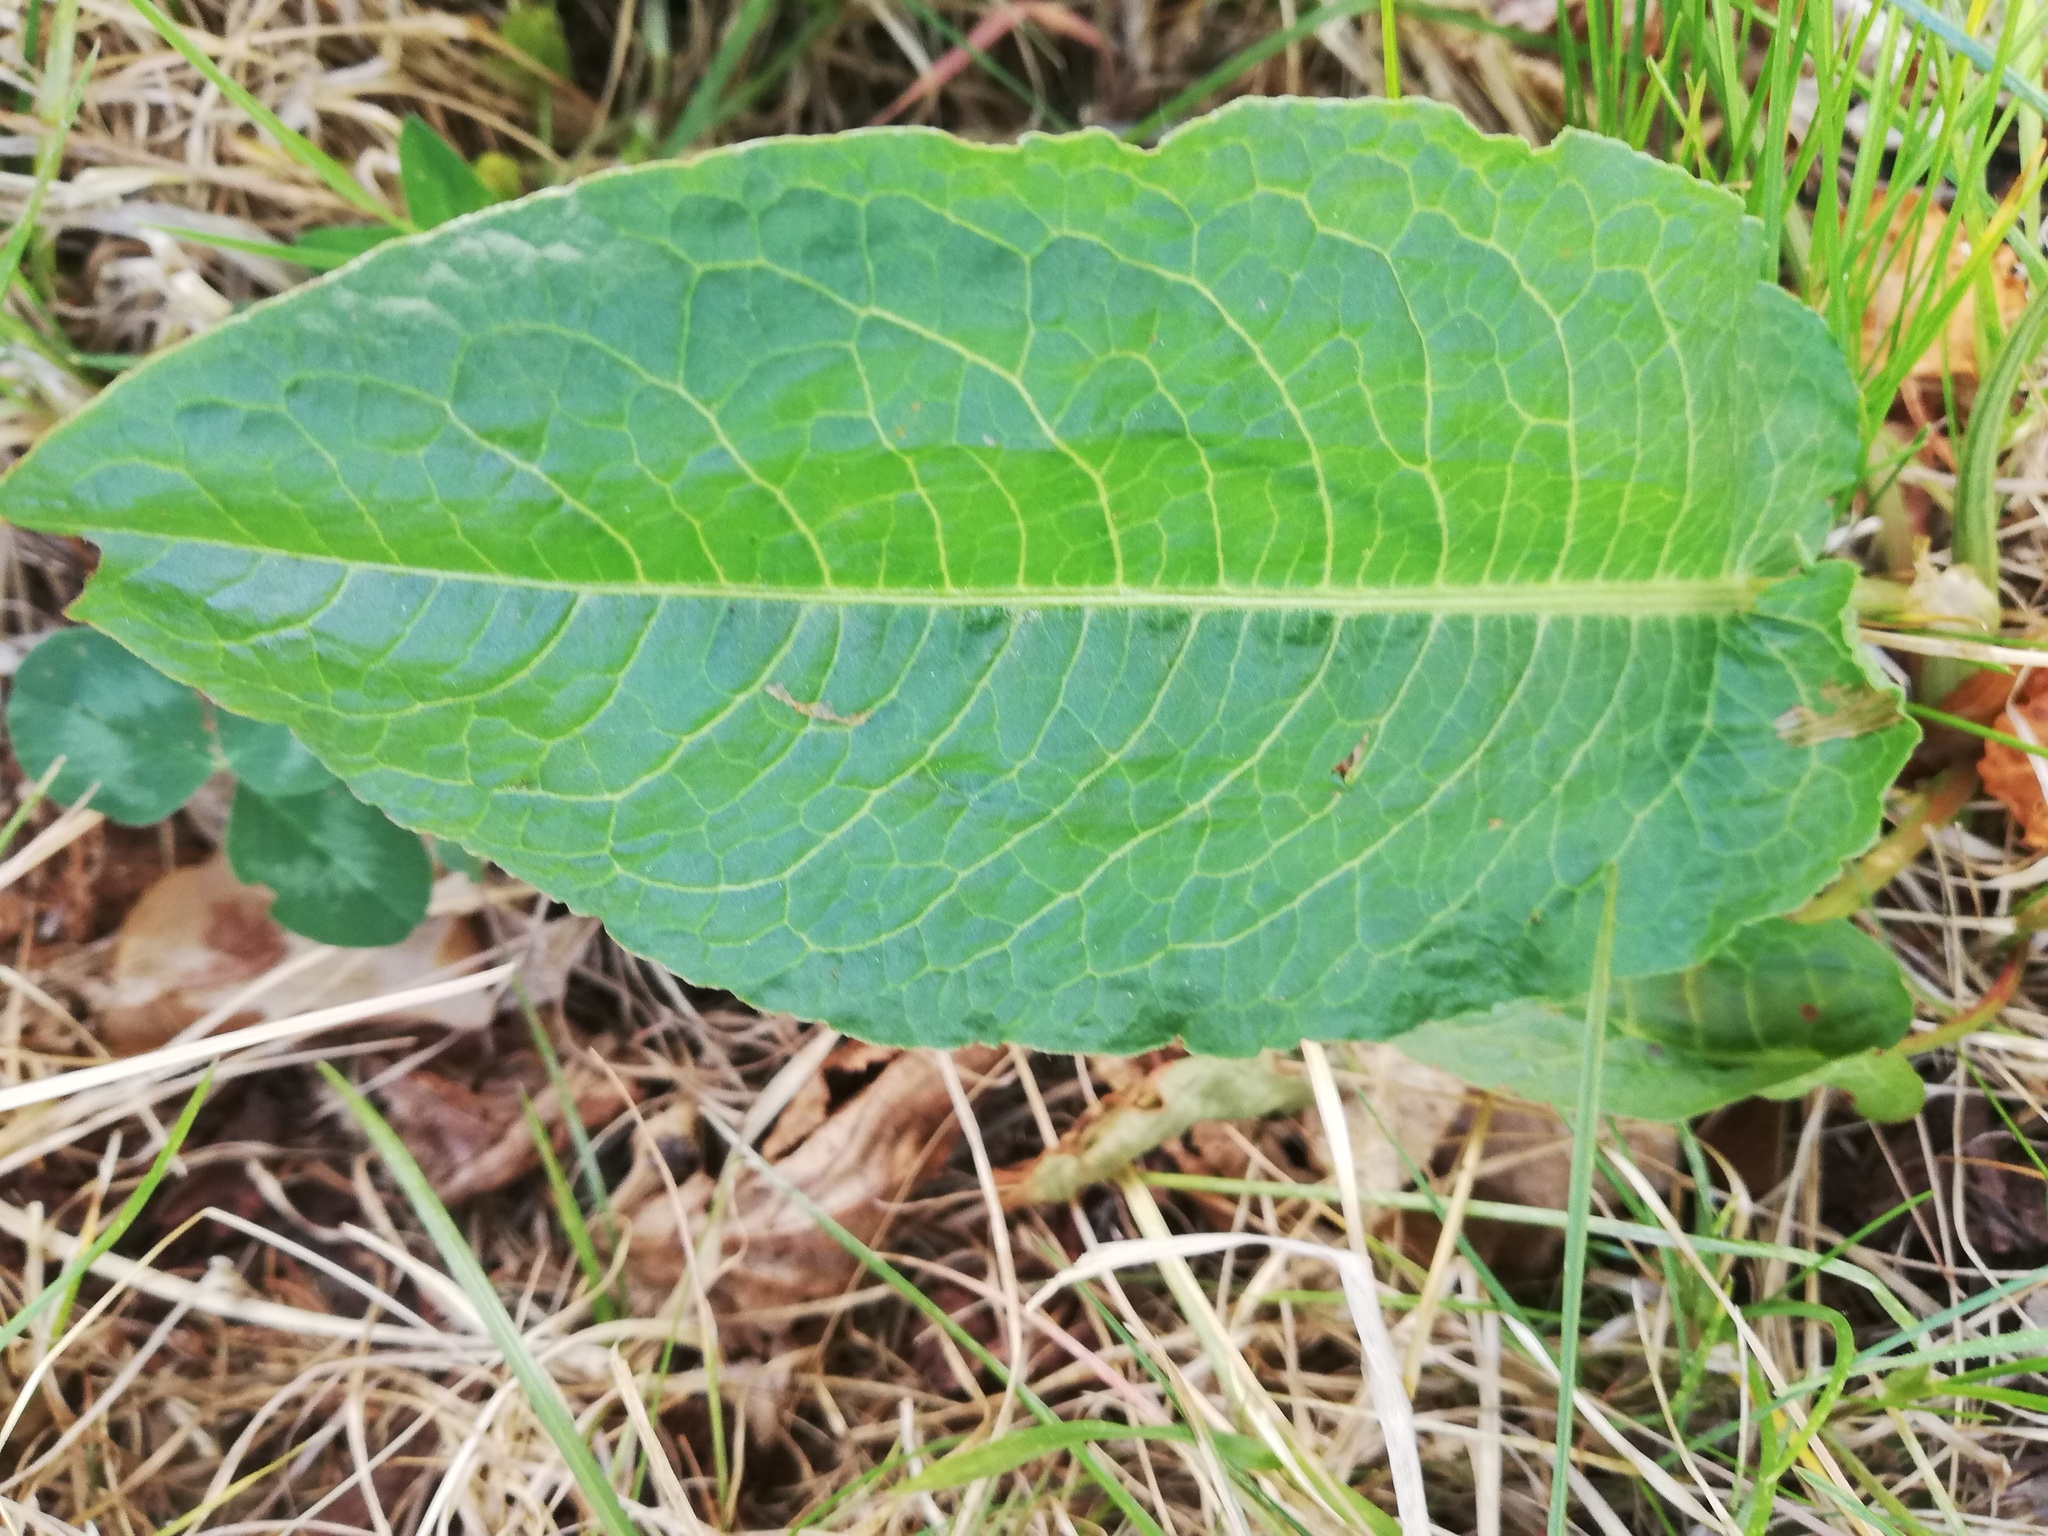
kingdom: Plantae
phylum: Tracheophyta
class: Magnoliopsida
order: Caryophyllales
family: Polygonaceae
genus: Rumex
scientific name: Rumex obtusifolius
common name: Bitter dock
